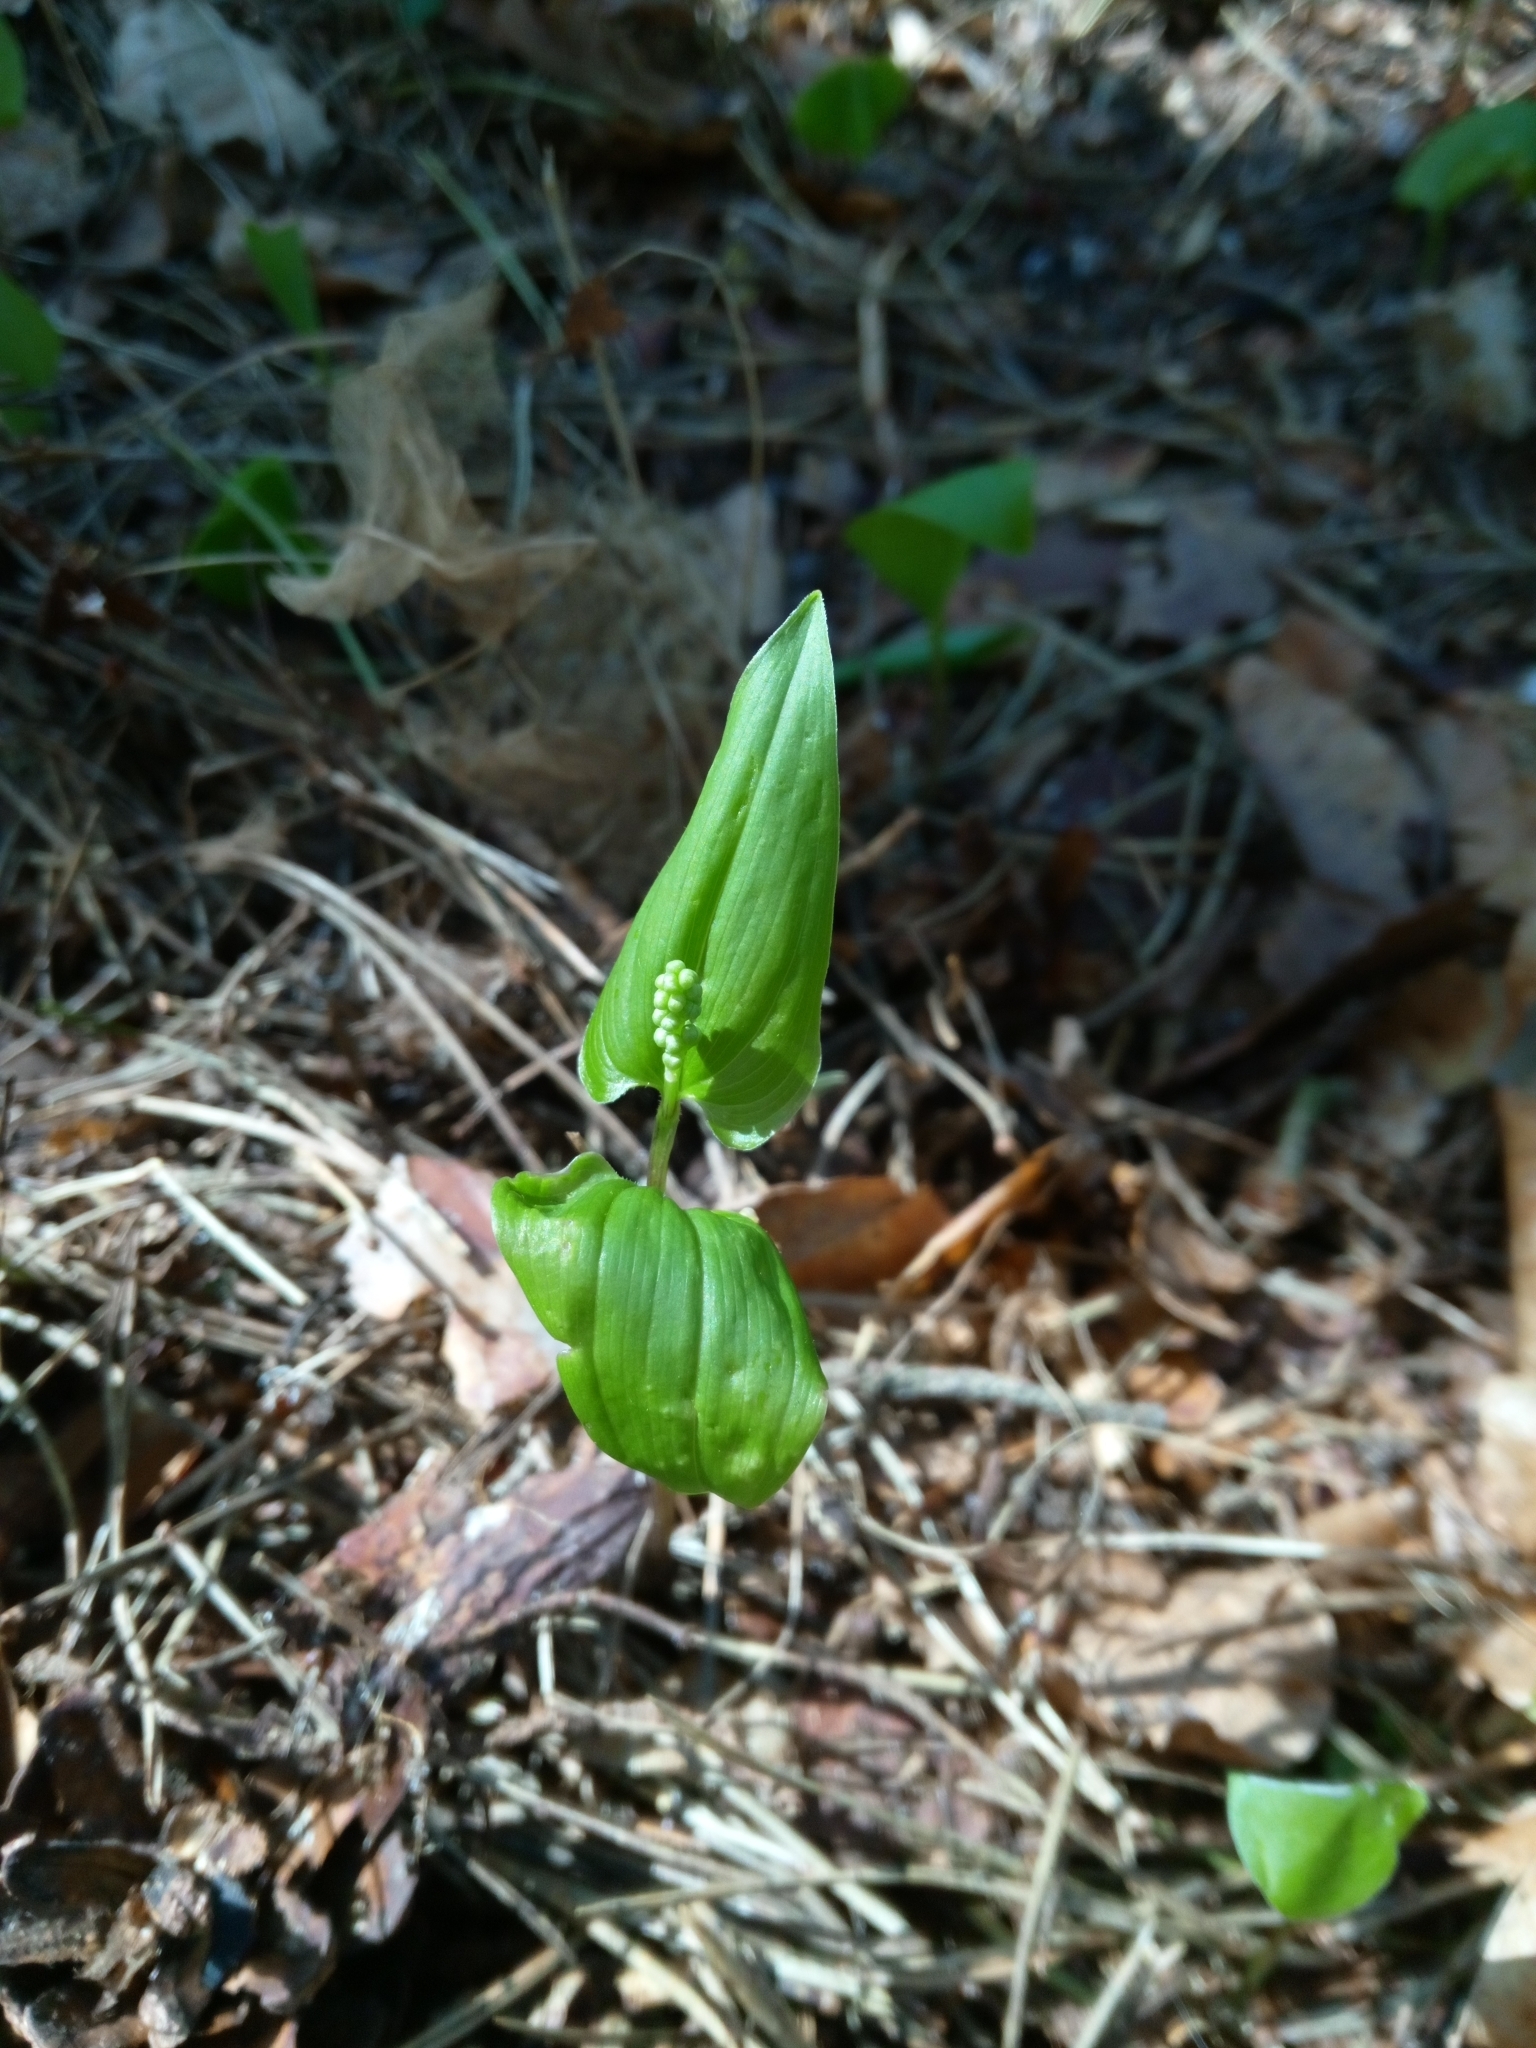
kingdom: Plantae
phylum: Tracheophyta
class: Liliopsida
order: Asparagales
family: Asparagaceae
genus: Maianthemum
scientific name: Maianthemum bifolium
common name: May lily
